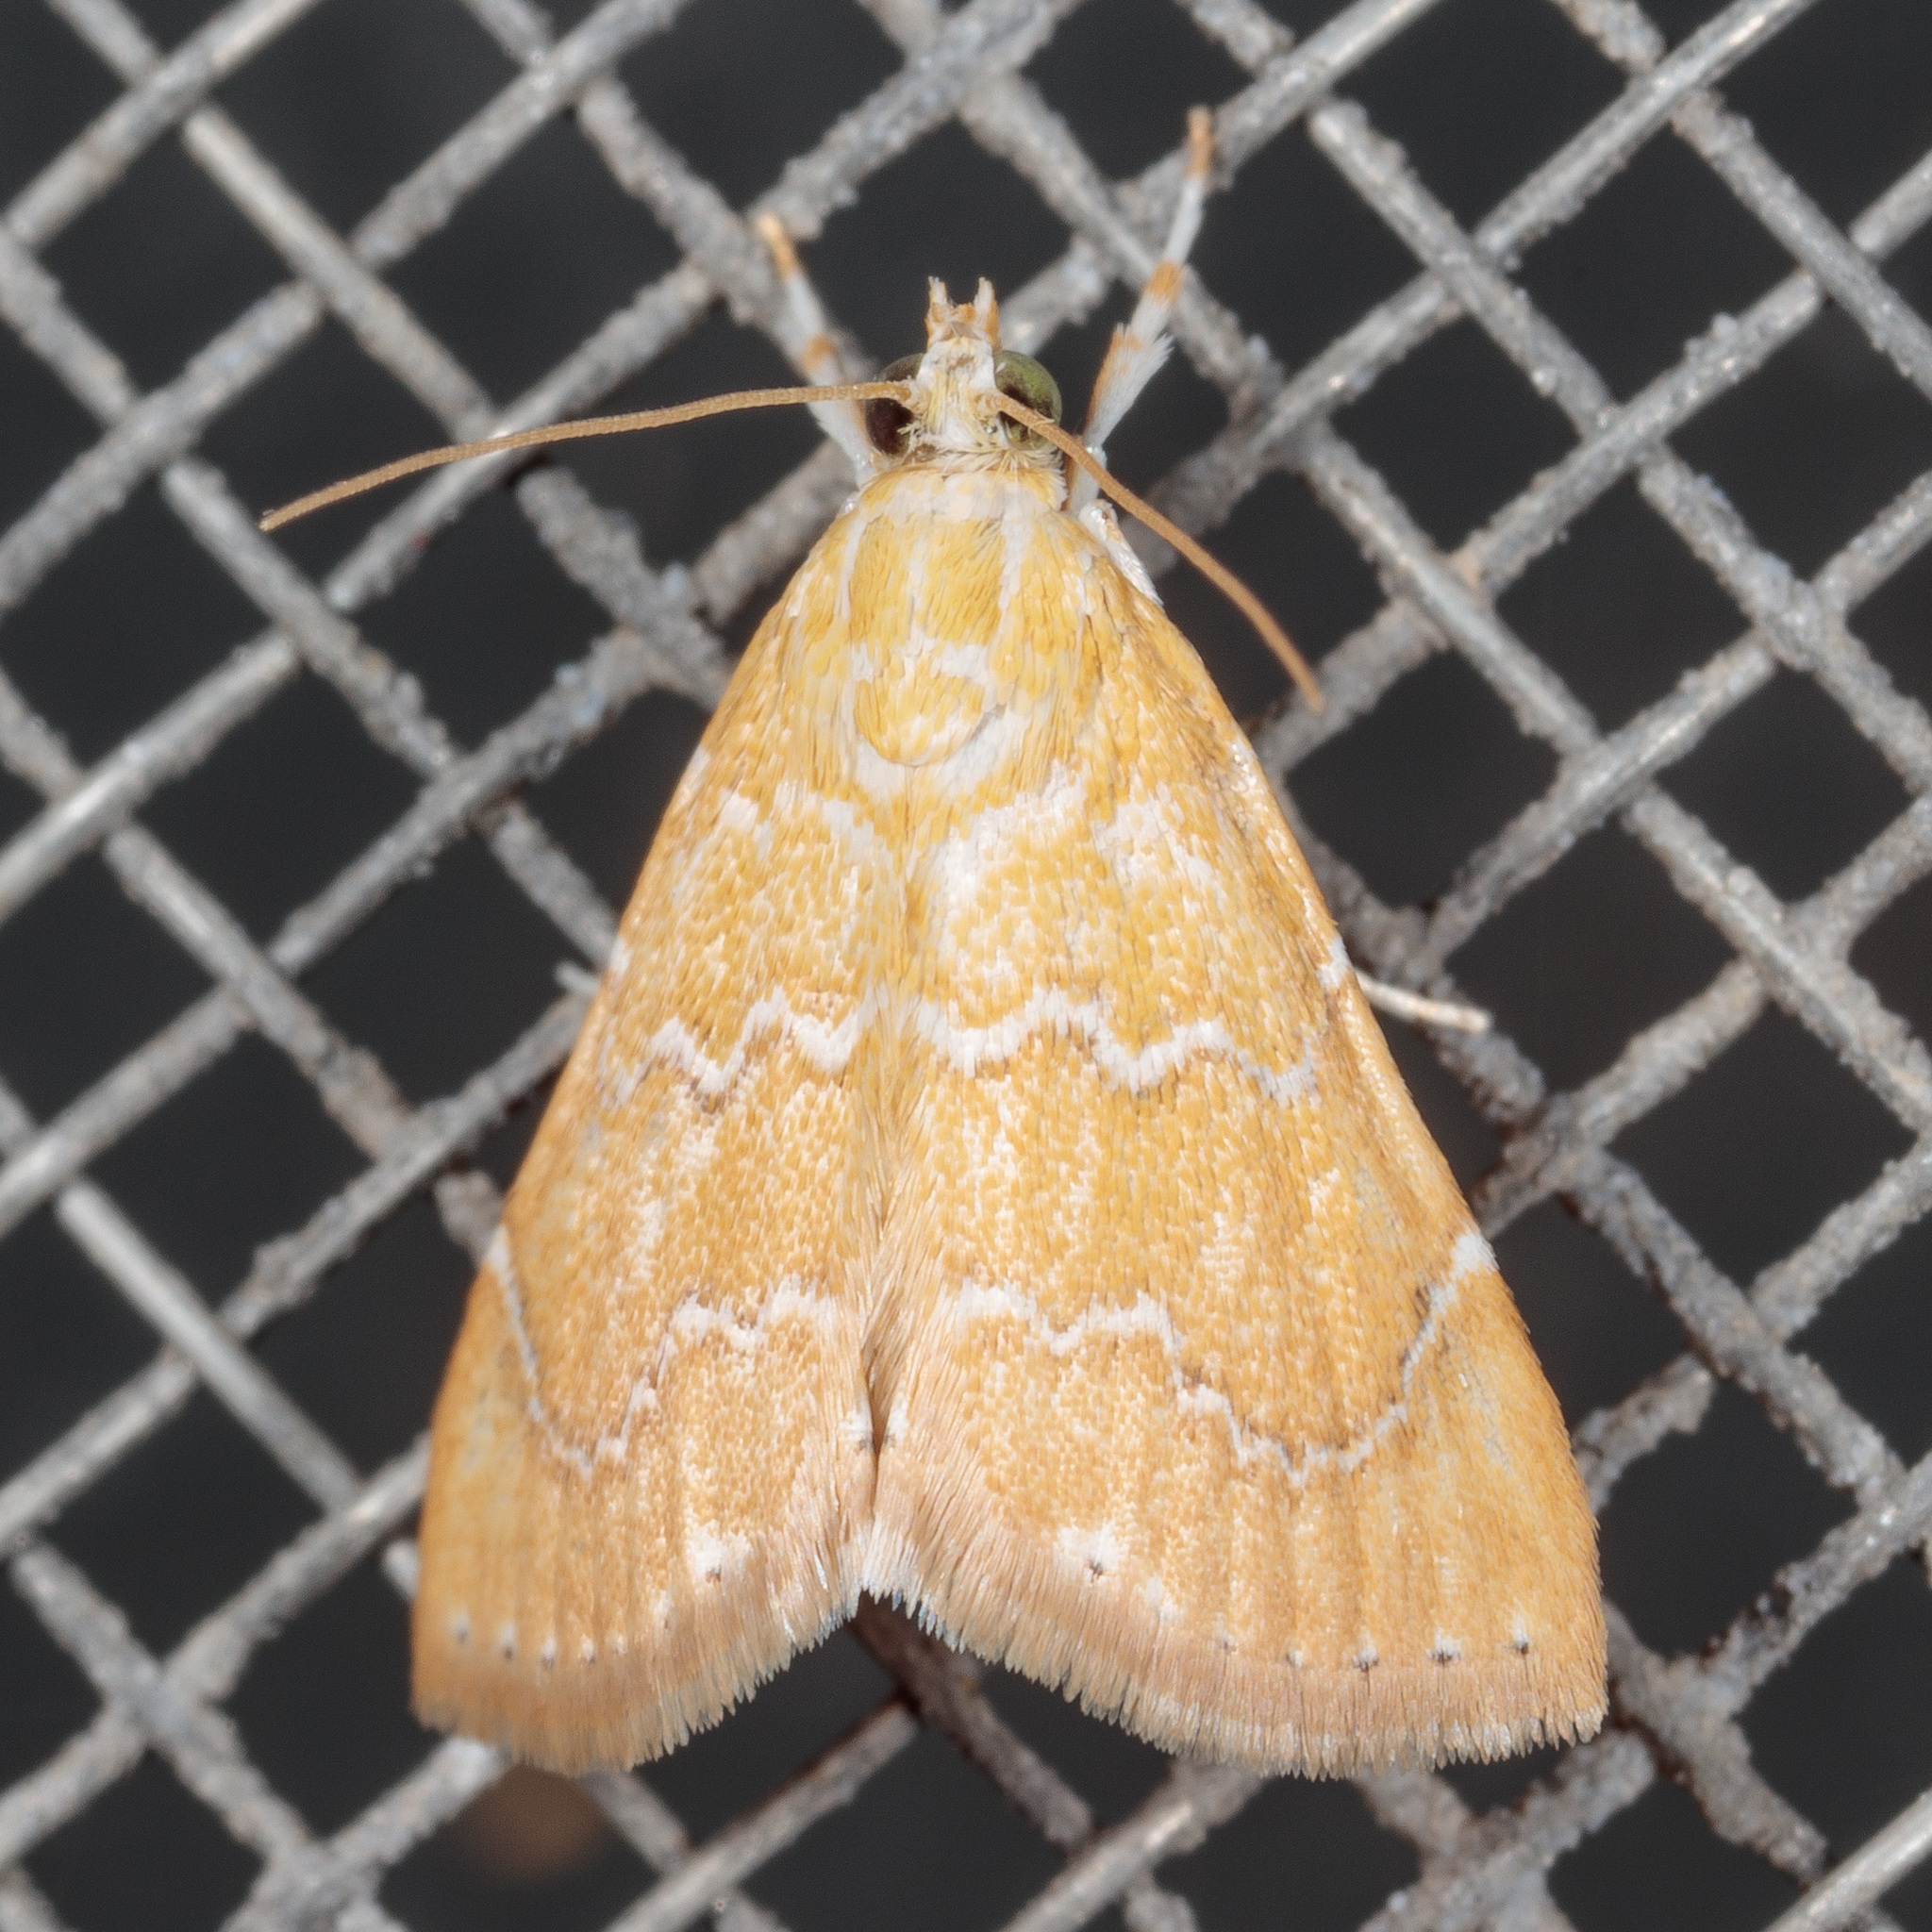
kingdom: Animalia
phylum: Arthropoda
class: Insecta
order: Lepidoptera
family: Crambidae
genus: Glaphyria
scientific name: Glaphyria sesquistrialis
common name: White-roped glaphyria
